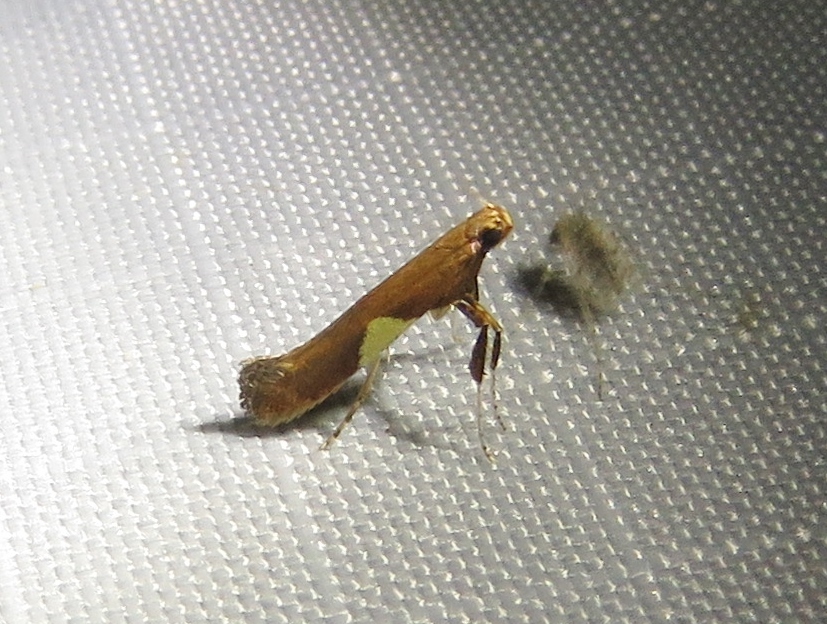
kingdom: Animalia
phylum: Arthropoda
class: Insecta
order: Lepidoptera
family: Gracillariidae
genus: Caloptilia
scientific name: Caloptilia stigmatella
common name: White-triangle slender
